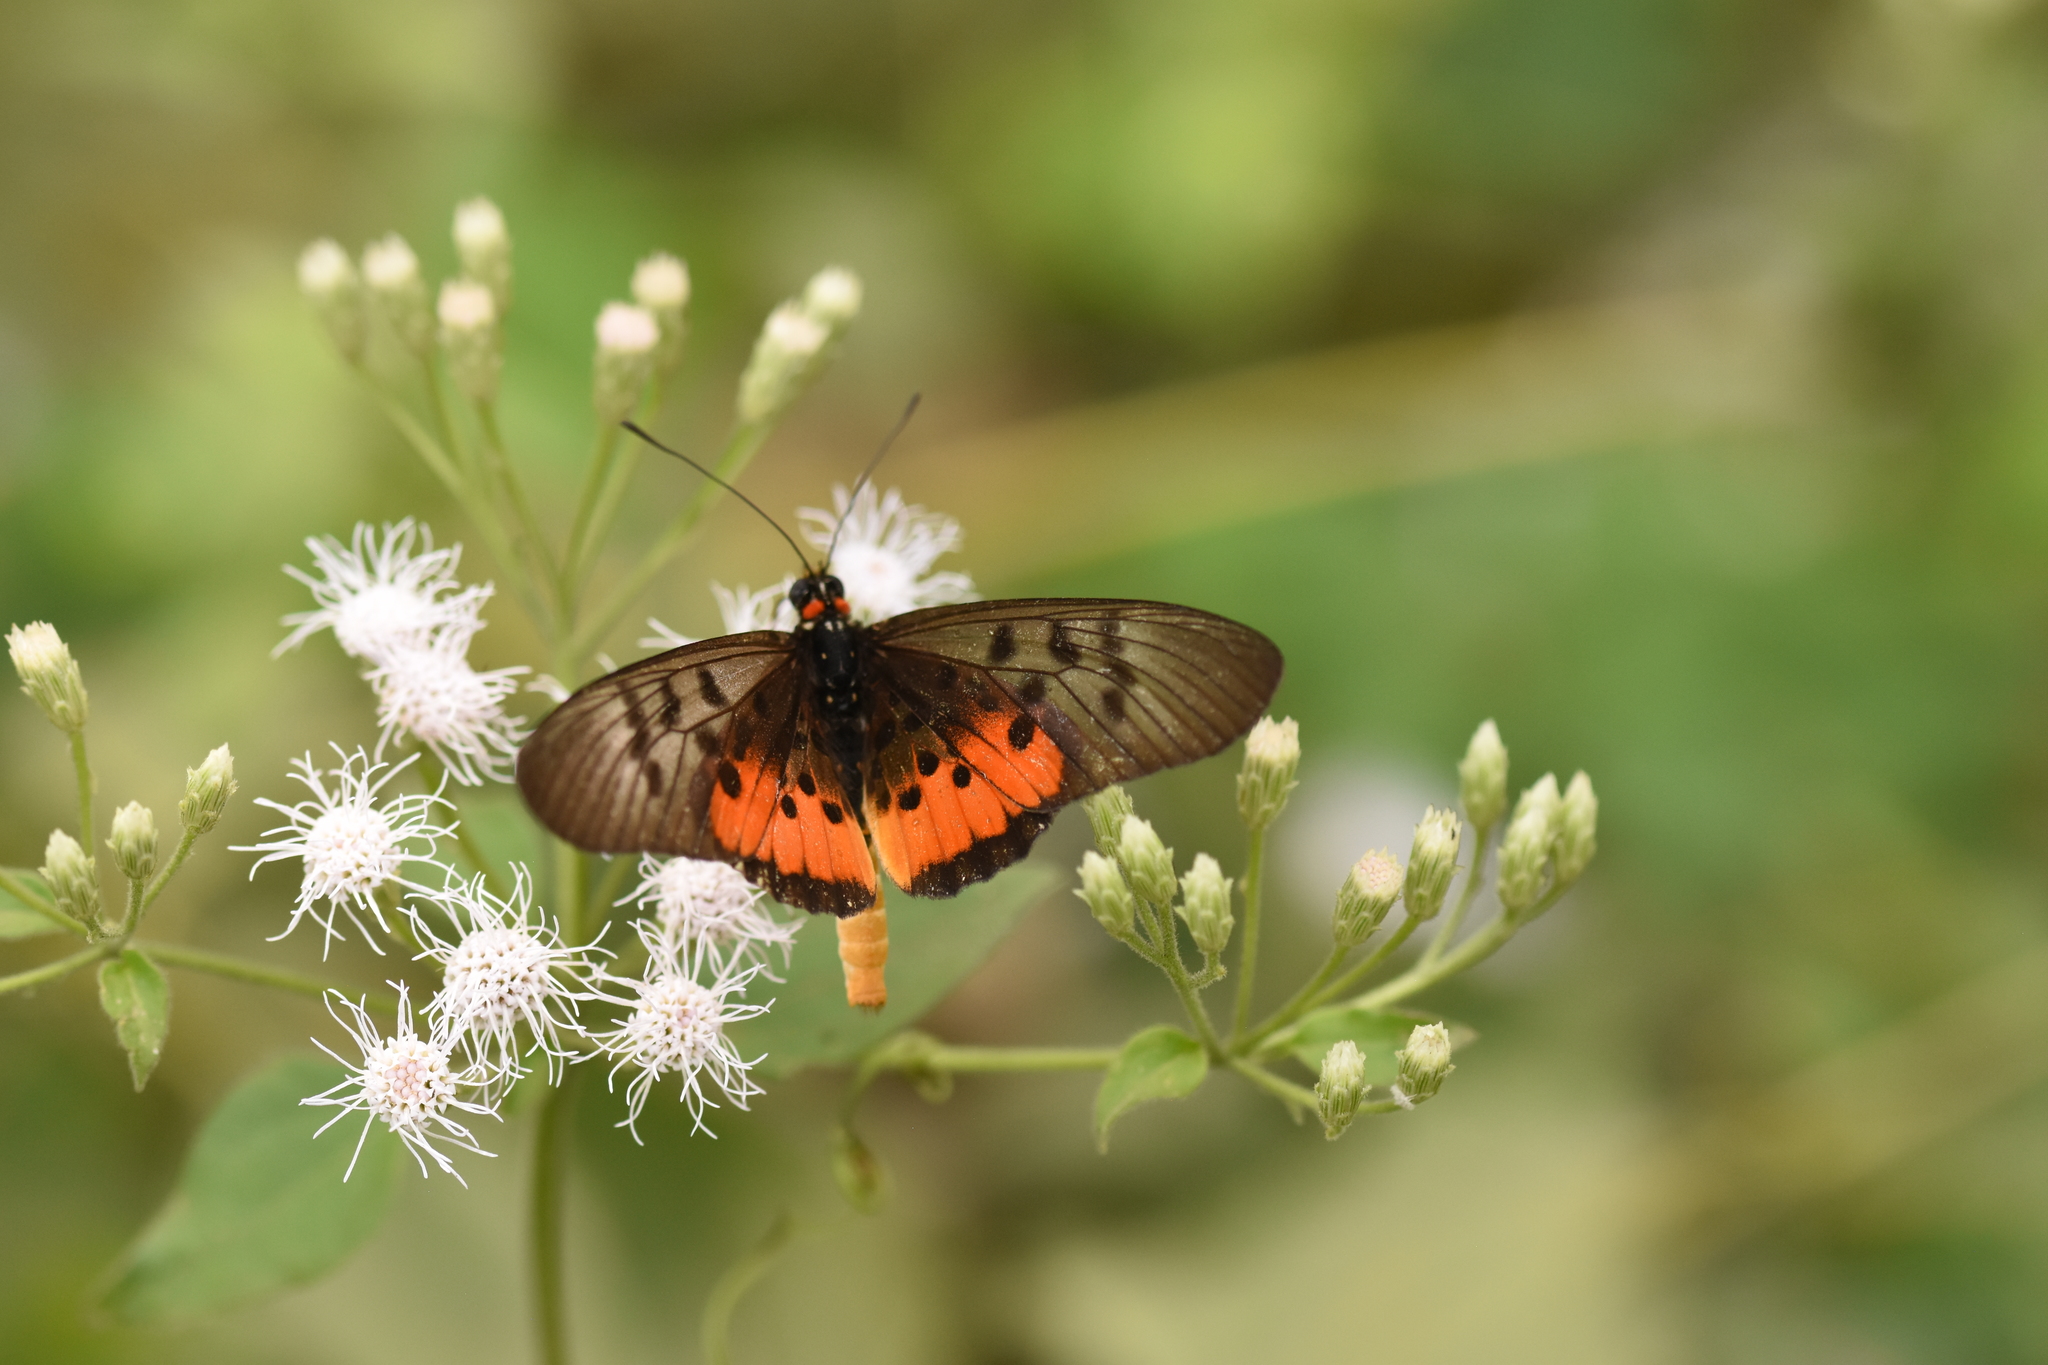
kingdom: Animalia
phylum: Arthropoda
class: Insecta
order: Lepidoptera
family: Nymphalidae
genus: Rubraea
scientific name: Rubraea
